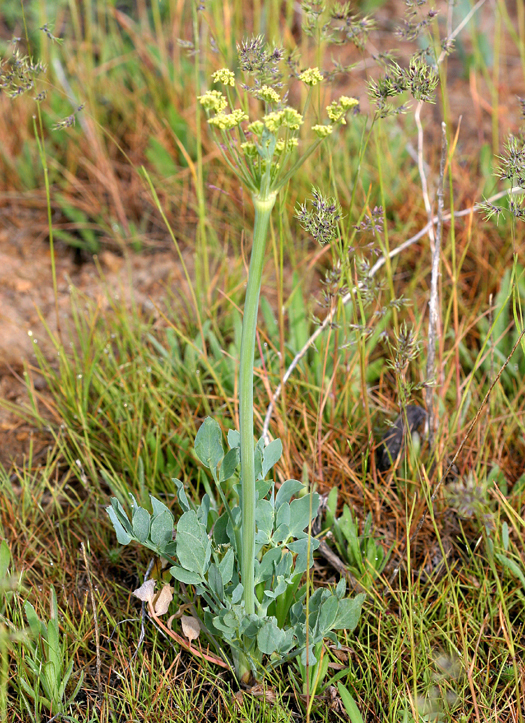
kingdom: Plantae
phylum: Tracheophyta
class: Magnoliopsida
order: Apiales
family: Apiaceae
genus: Lomatium
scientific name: Lomatium nudicaule
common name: Pestle lomatium
